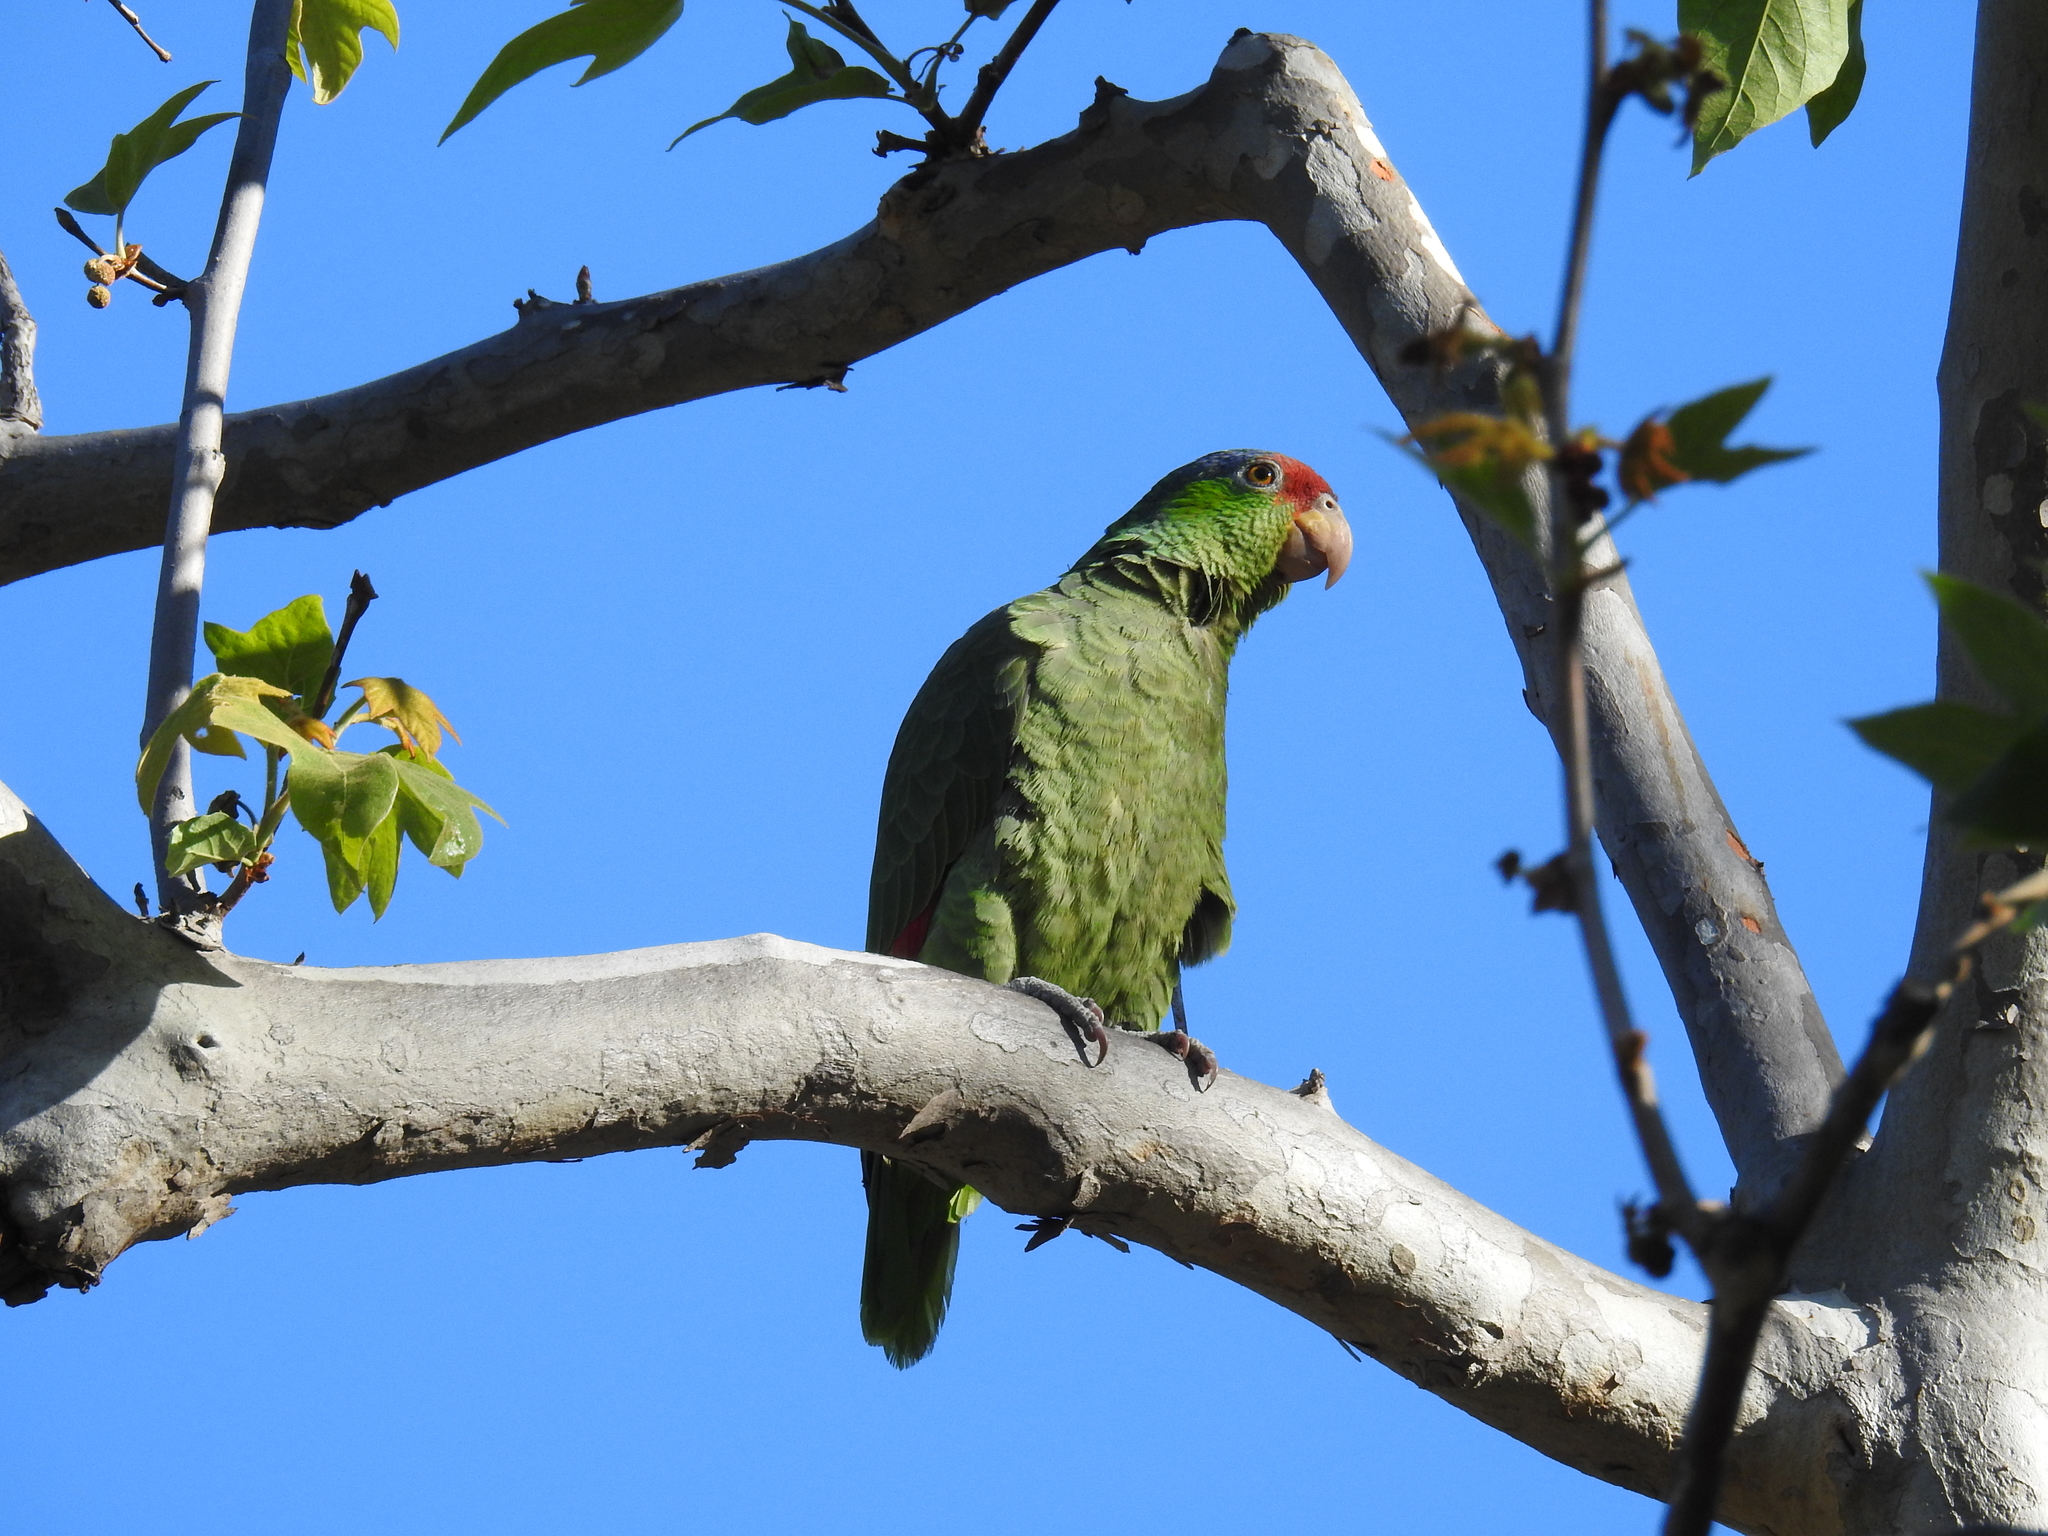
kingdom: Animalia
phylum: Chordata
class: Aves
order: Psittaciformes
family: Psittacidae
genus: Amazona
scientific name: Amazona viridigenalis
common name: Red-crowned amazon
